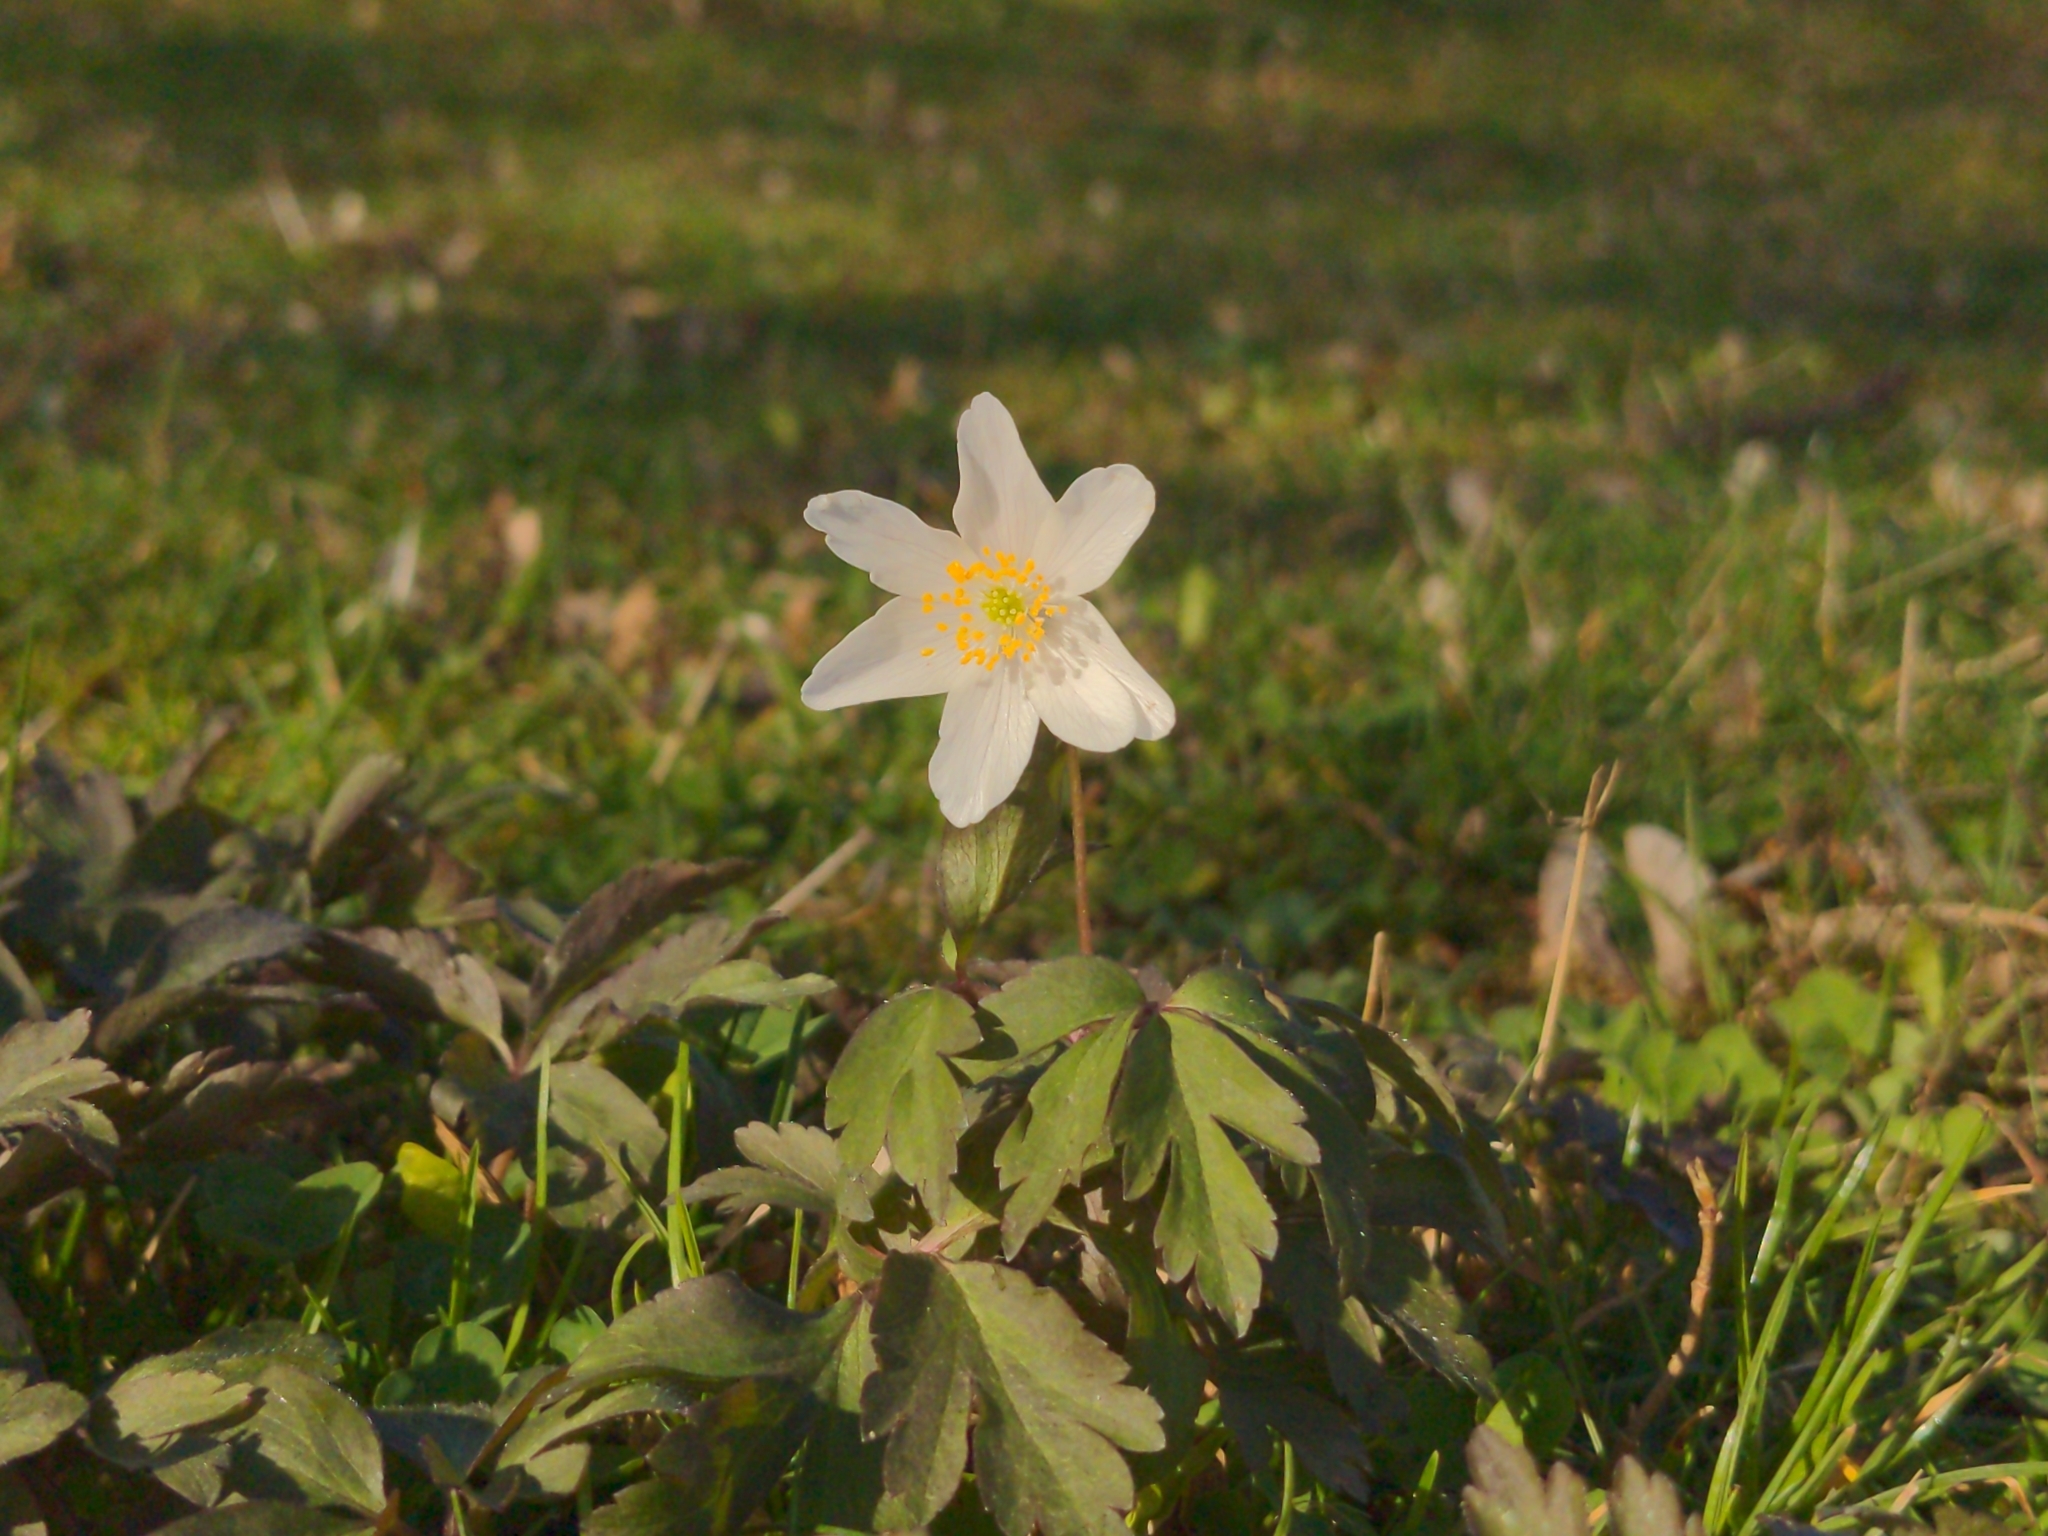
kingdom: Plantae
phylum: Tracheophyta
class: Magnoliopsida
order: Ranunculales
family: Ranunculaceae
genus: Anemone
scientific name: Anemone nemorosa
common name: Wood anemone
